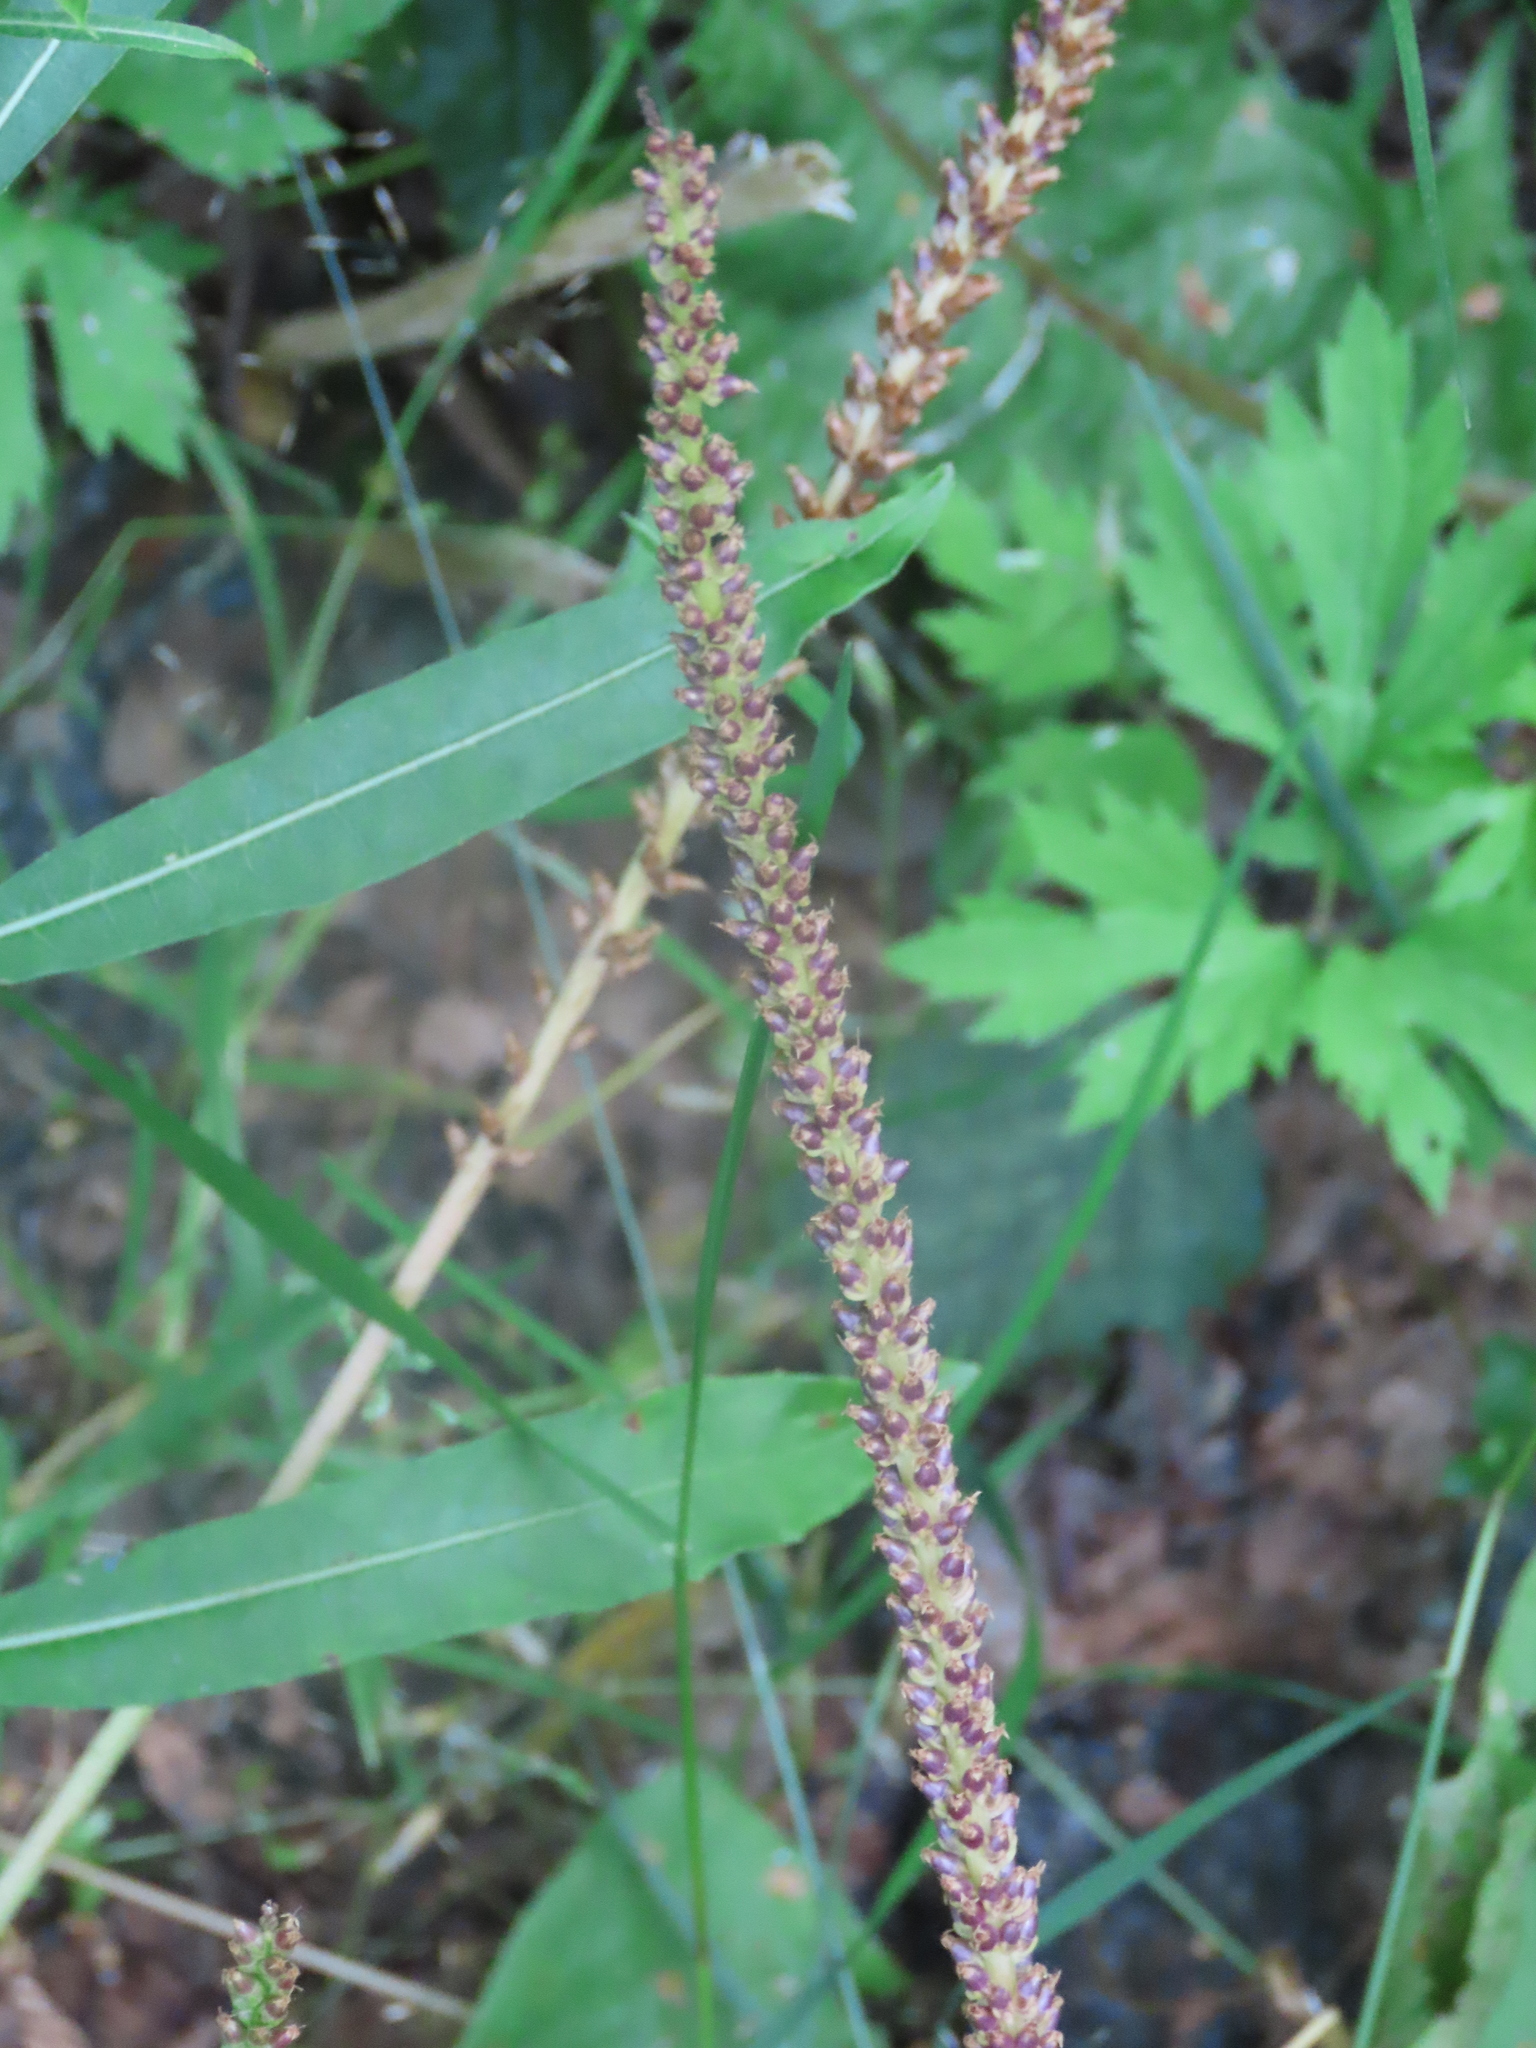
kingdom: Plantae
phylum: Tracheophyta
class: Magnoliopsida
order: Lamiales
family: Plantaginaceae
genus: Plantago
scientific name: Plantago major
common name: Common plantain
